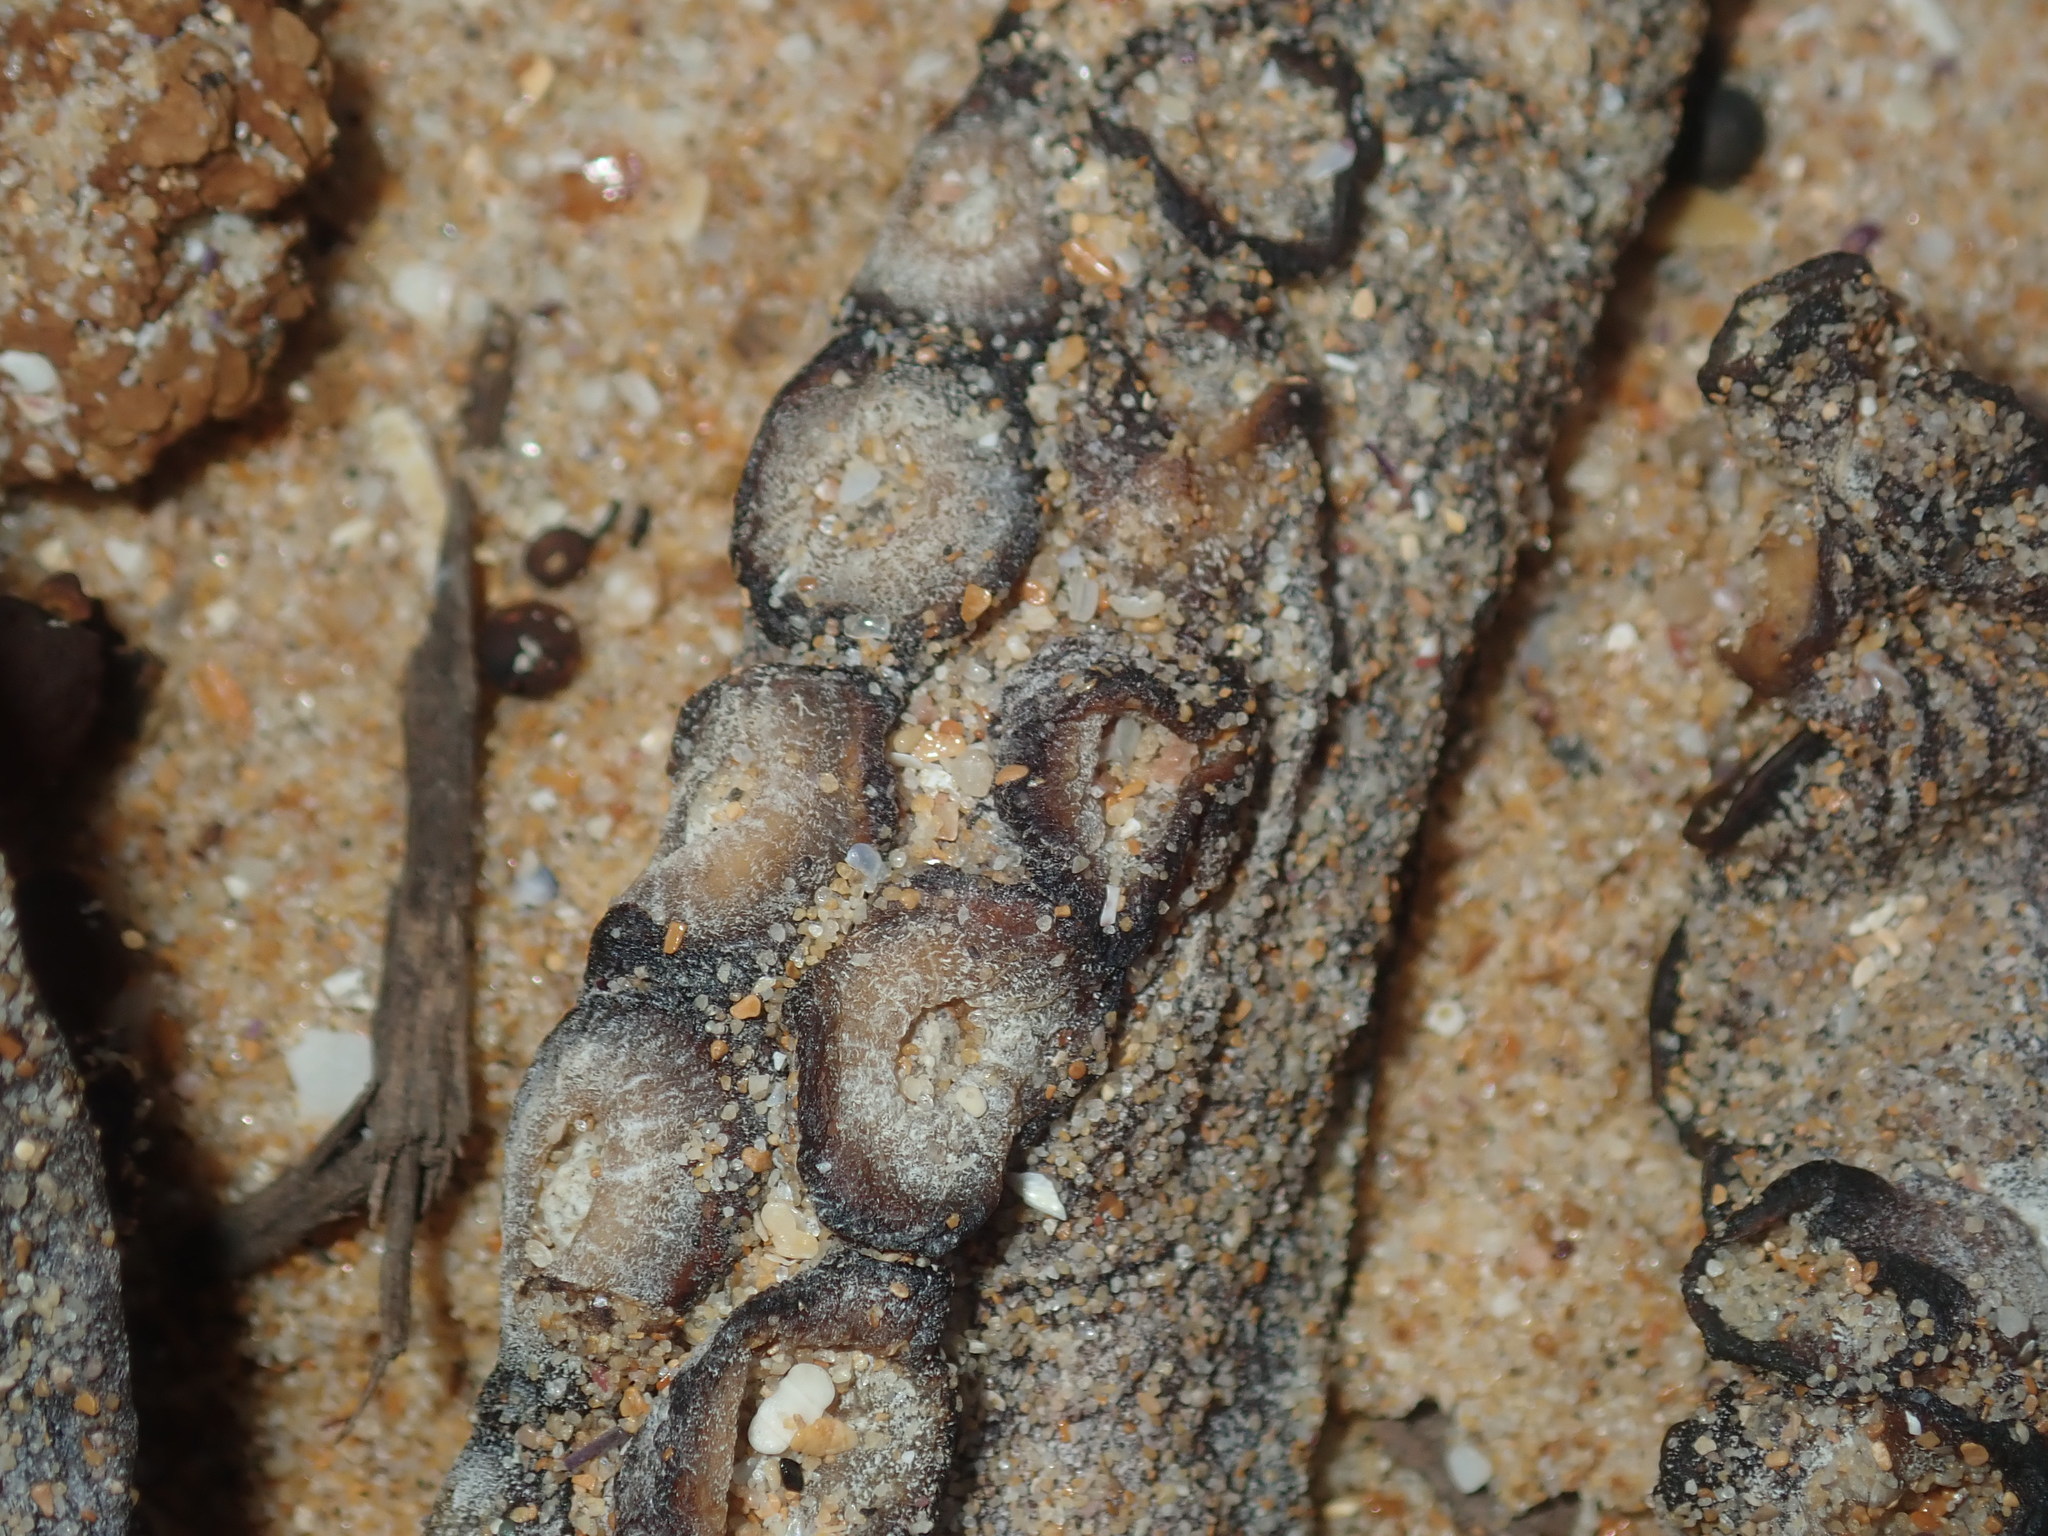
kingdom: Animalia
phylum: Mollusca
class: Cephalopoda
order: Octopoda
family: Octopodidae
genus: Octopus
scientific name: Octopus tetricus
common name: Sydney octopus
